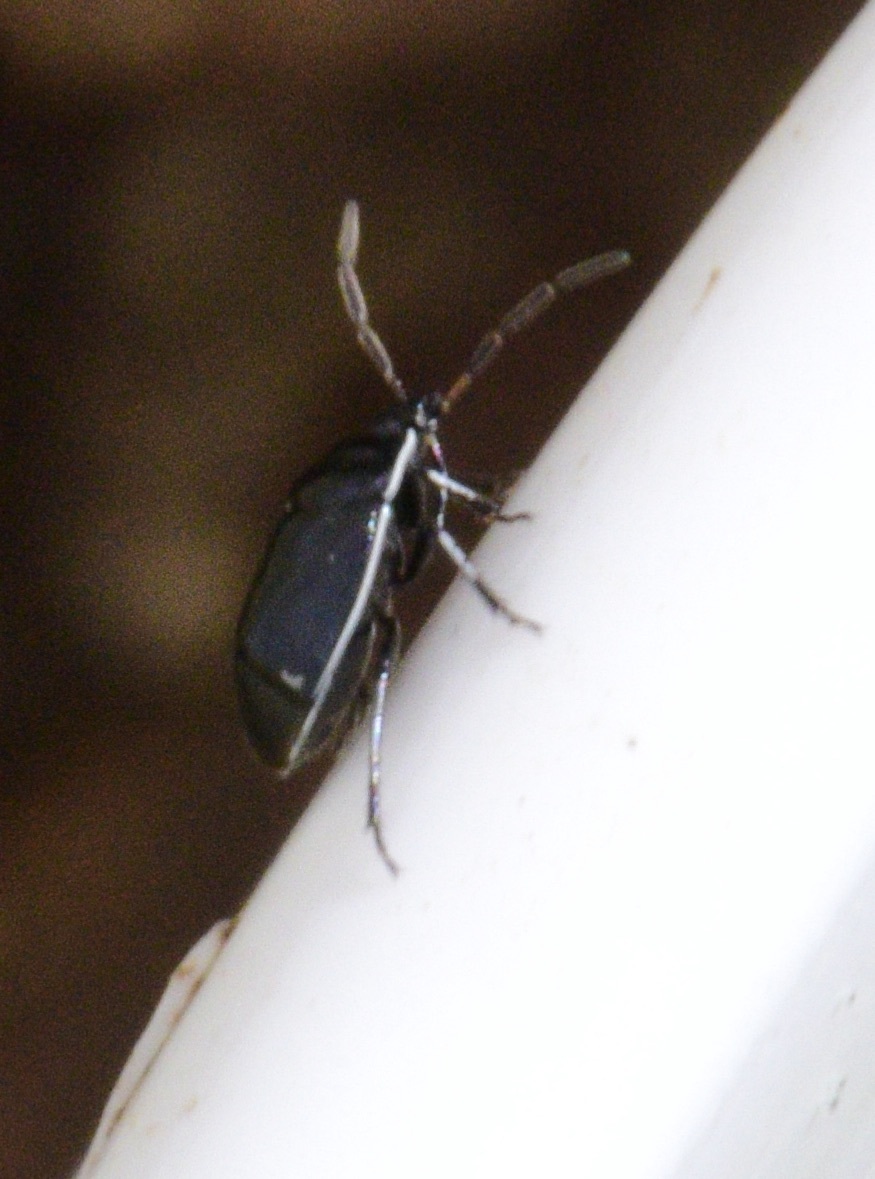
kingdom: Animalia
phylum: Arthropoda
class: Insecta
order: Hemiptera
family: Cydnidae
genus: Sehirus
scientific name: Sehirus cinctus
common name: White-margined burrower bug
